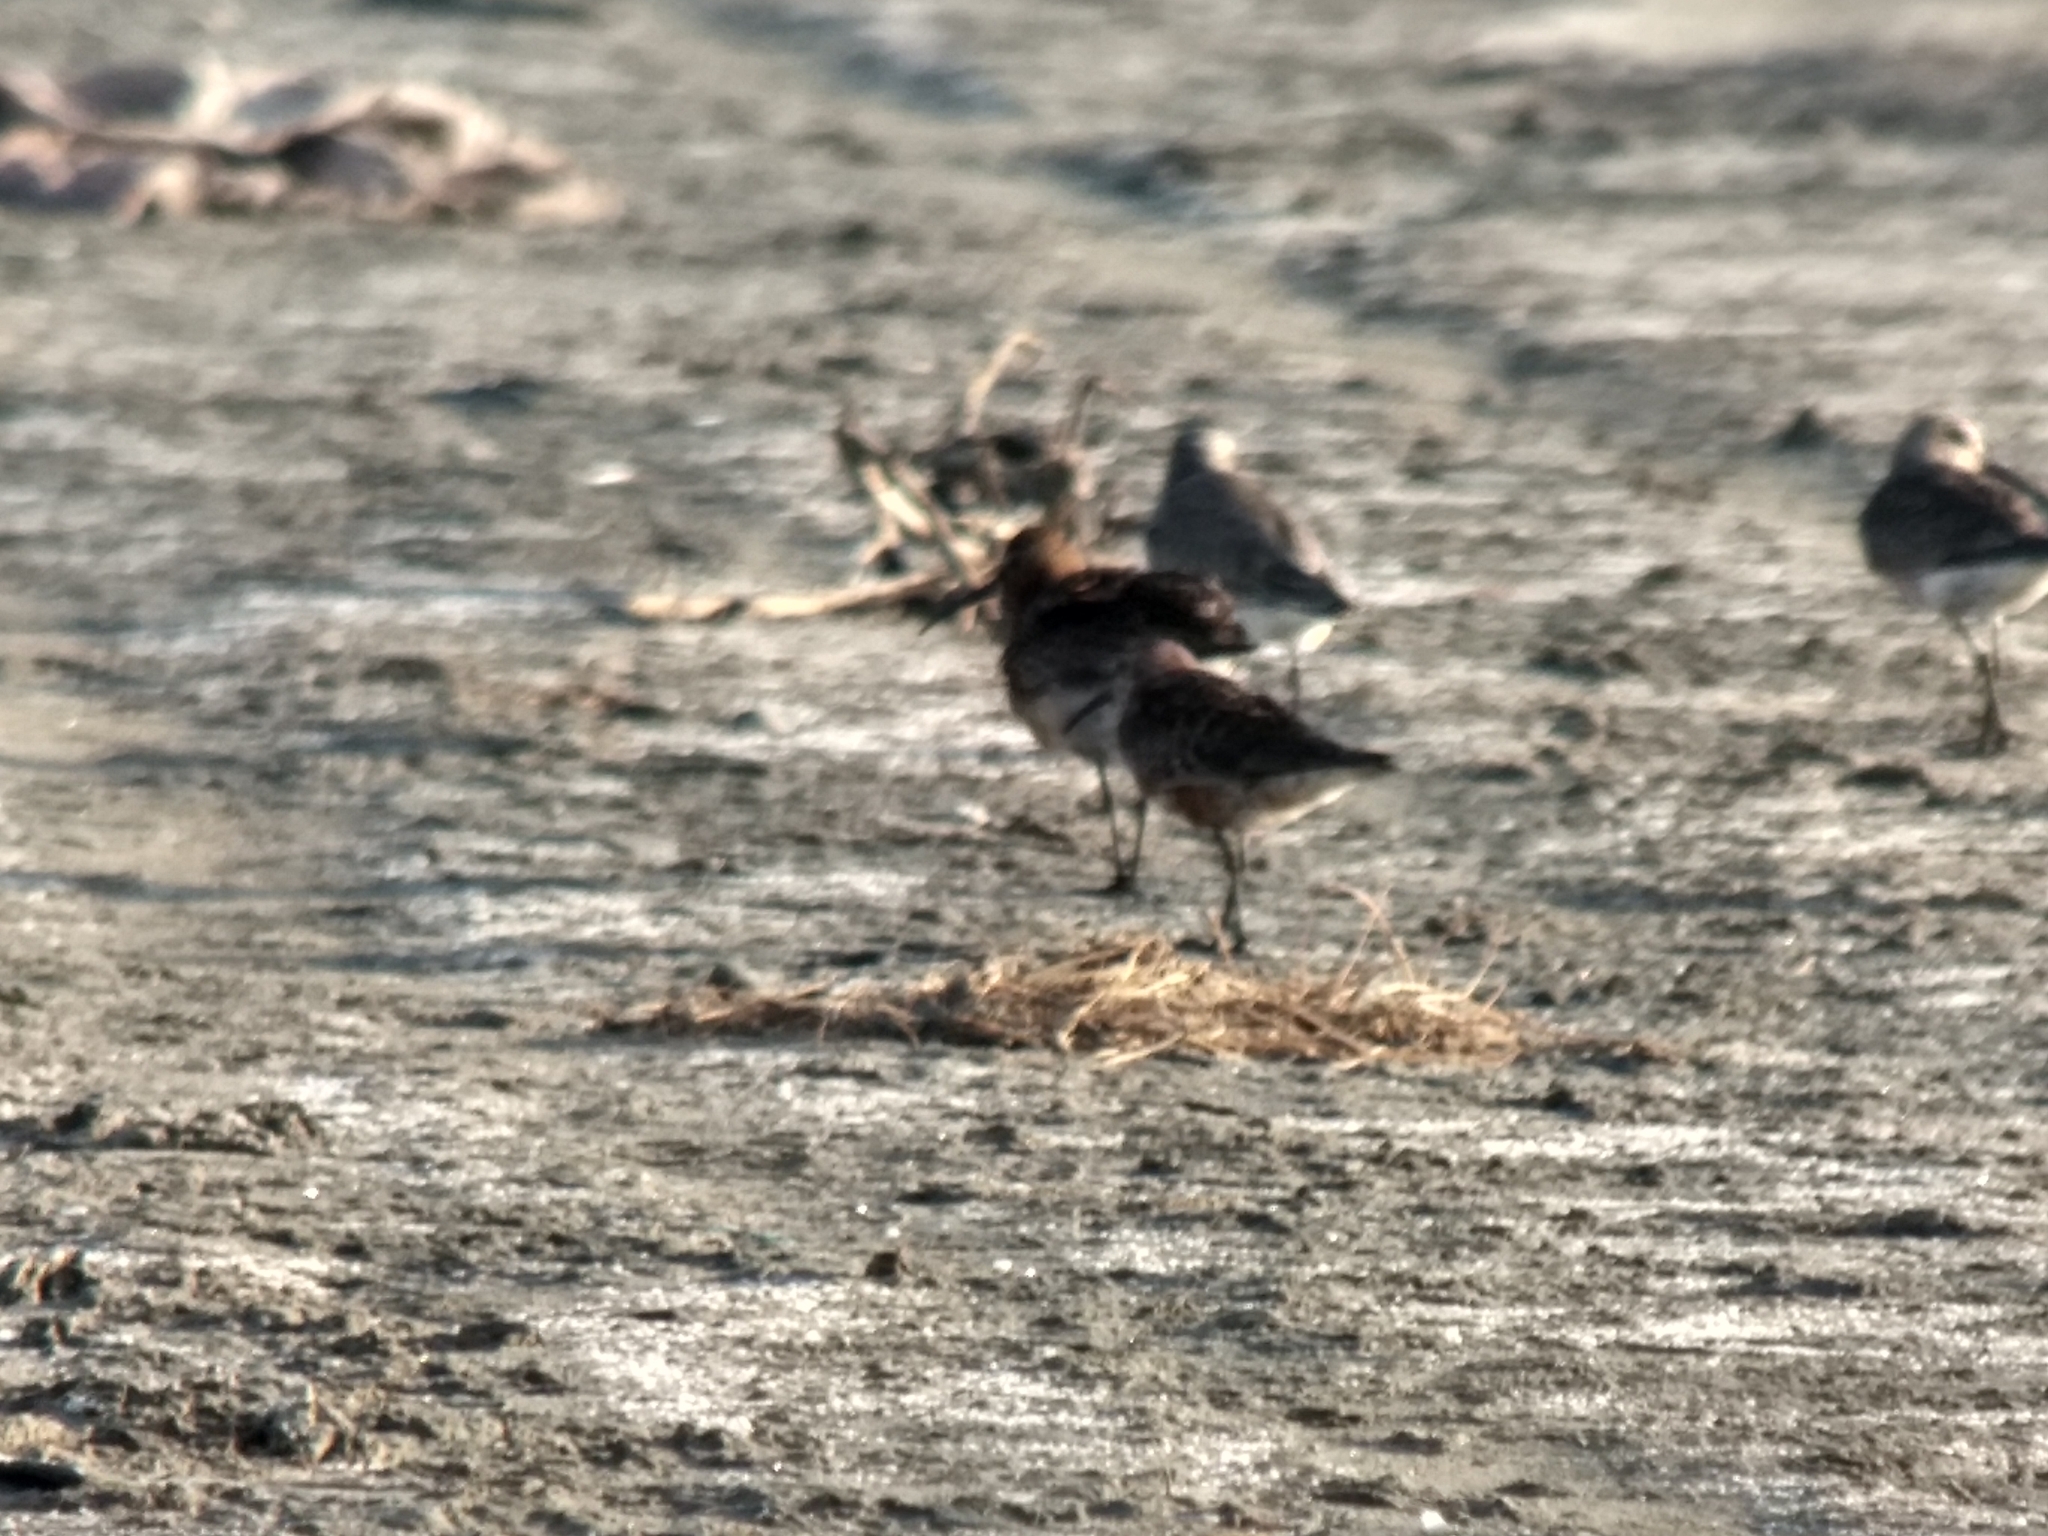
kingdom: Animalia
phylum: Chordata
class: Aves
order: Charadriiformes
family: Scolopacidae
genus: Calidris
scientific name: Calidris ferruginea
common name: Curlew sandpiper
